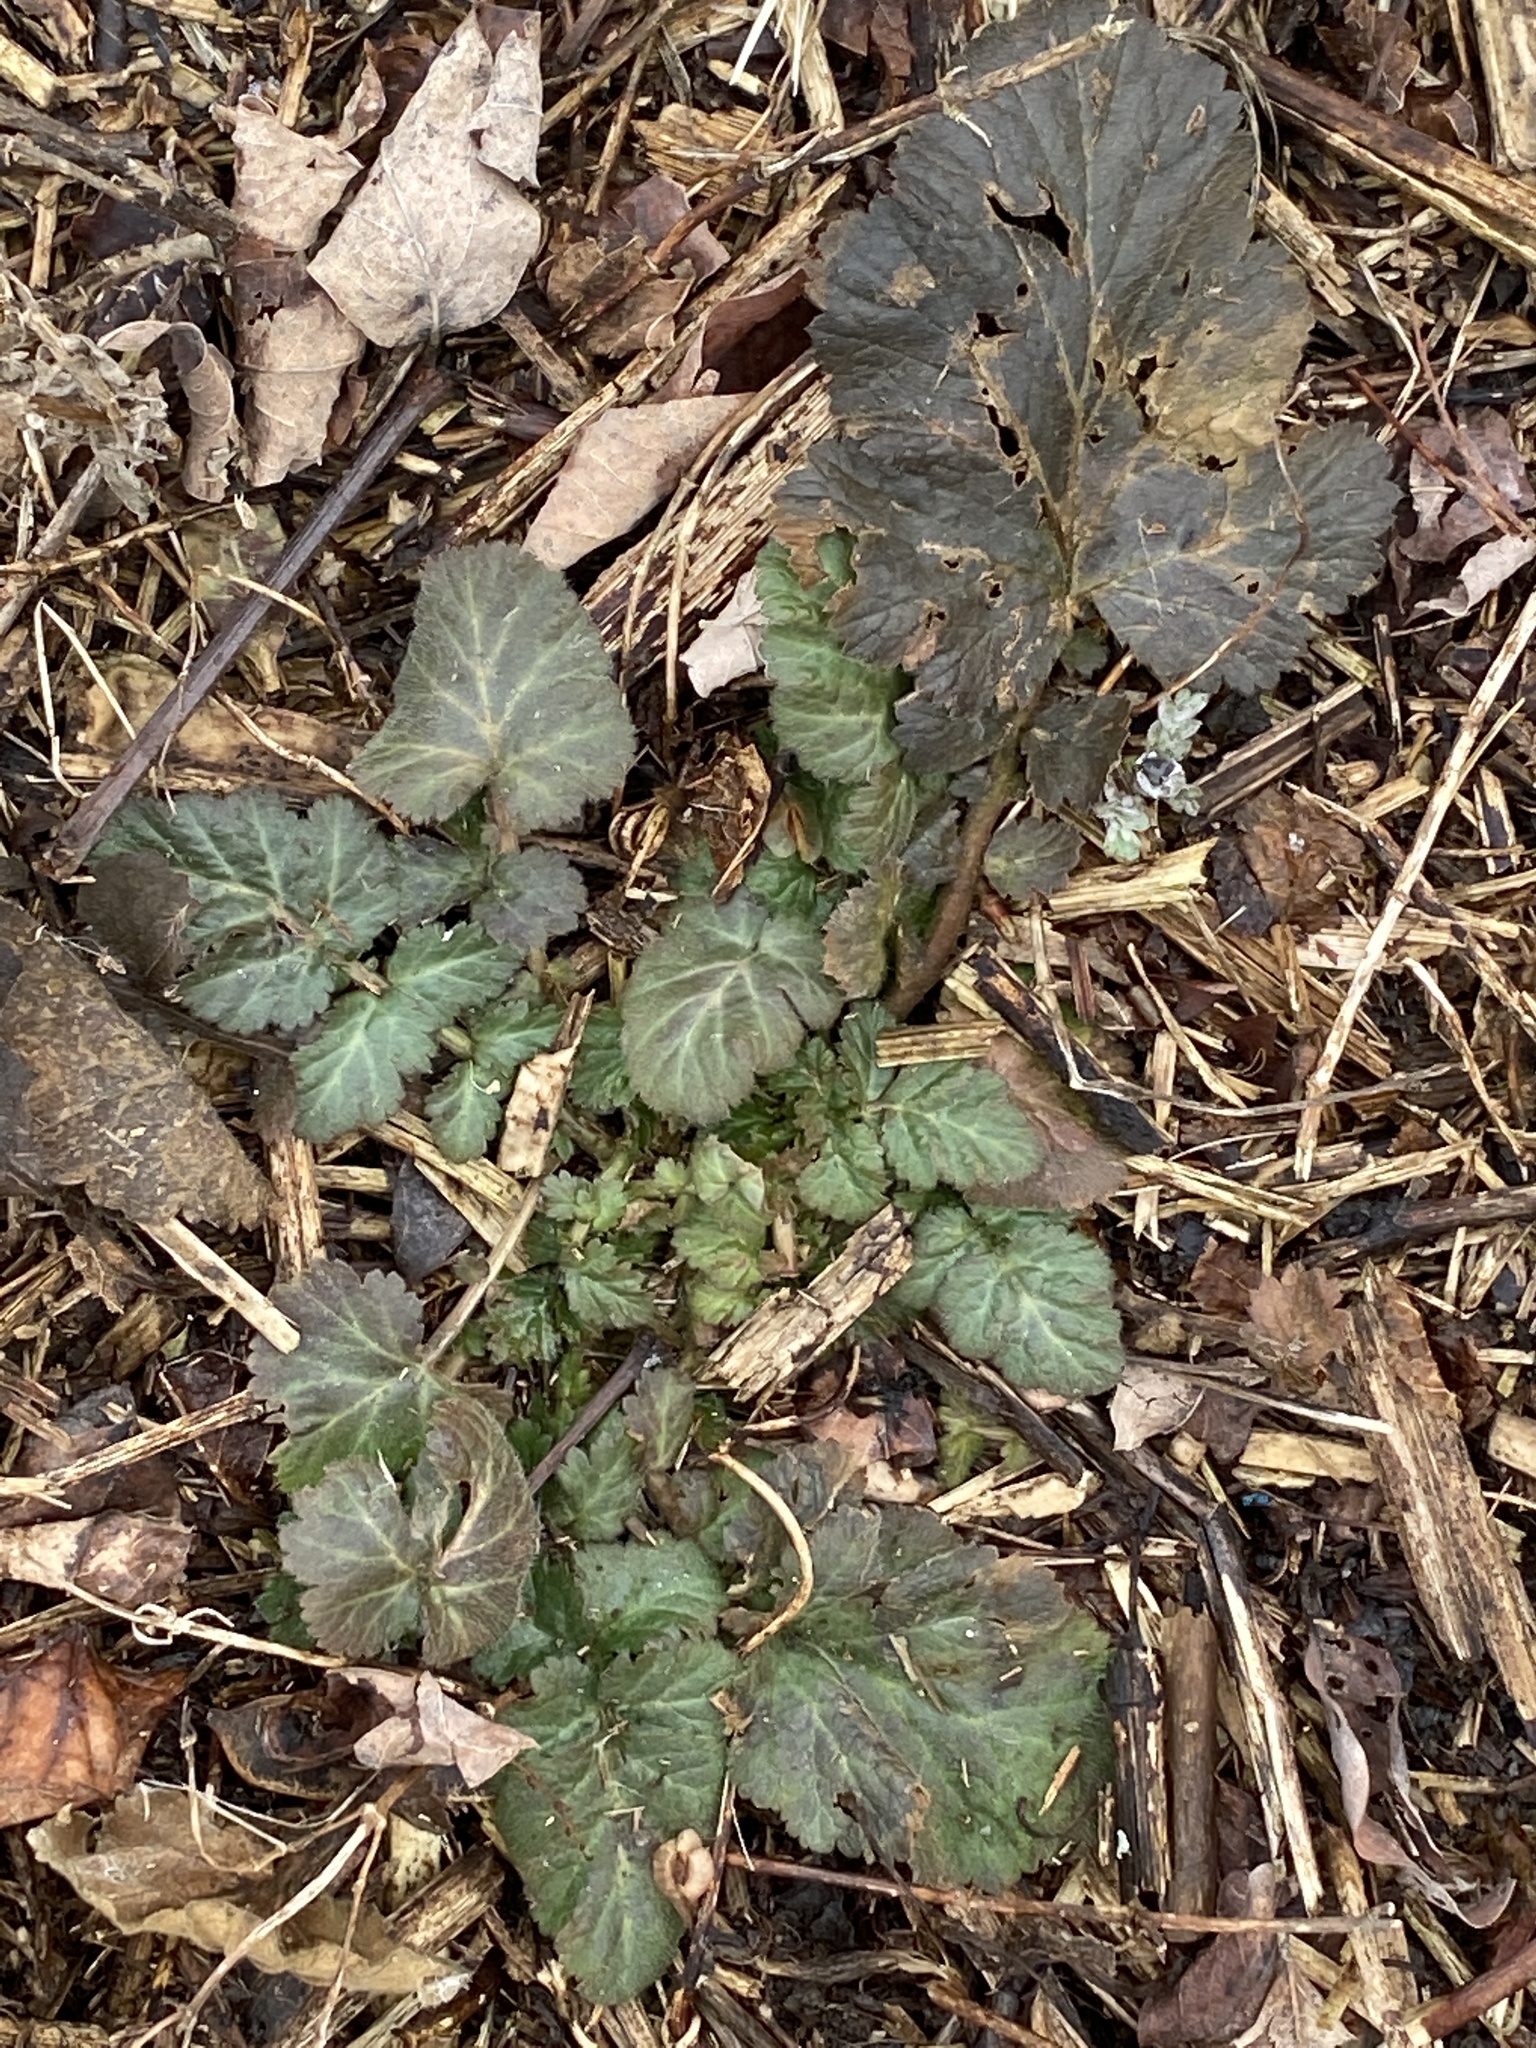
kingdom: Plantae
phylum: Tracheophyta
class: Magnoliopsida
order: Rosales
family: Rosaceae
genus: Geum
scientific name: Geum canadense
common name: White avens
